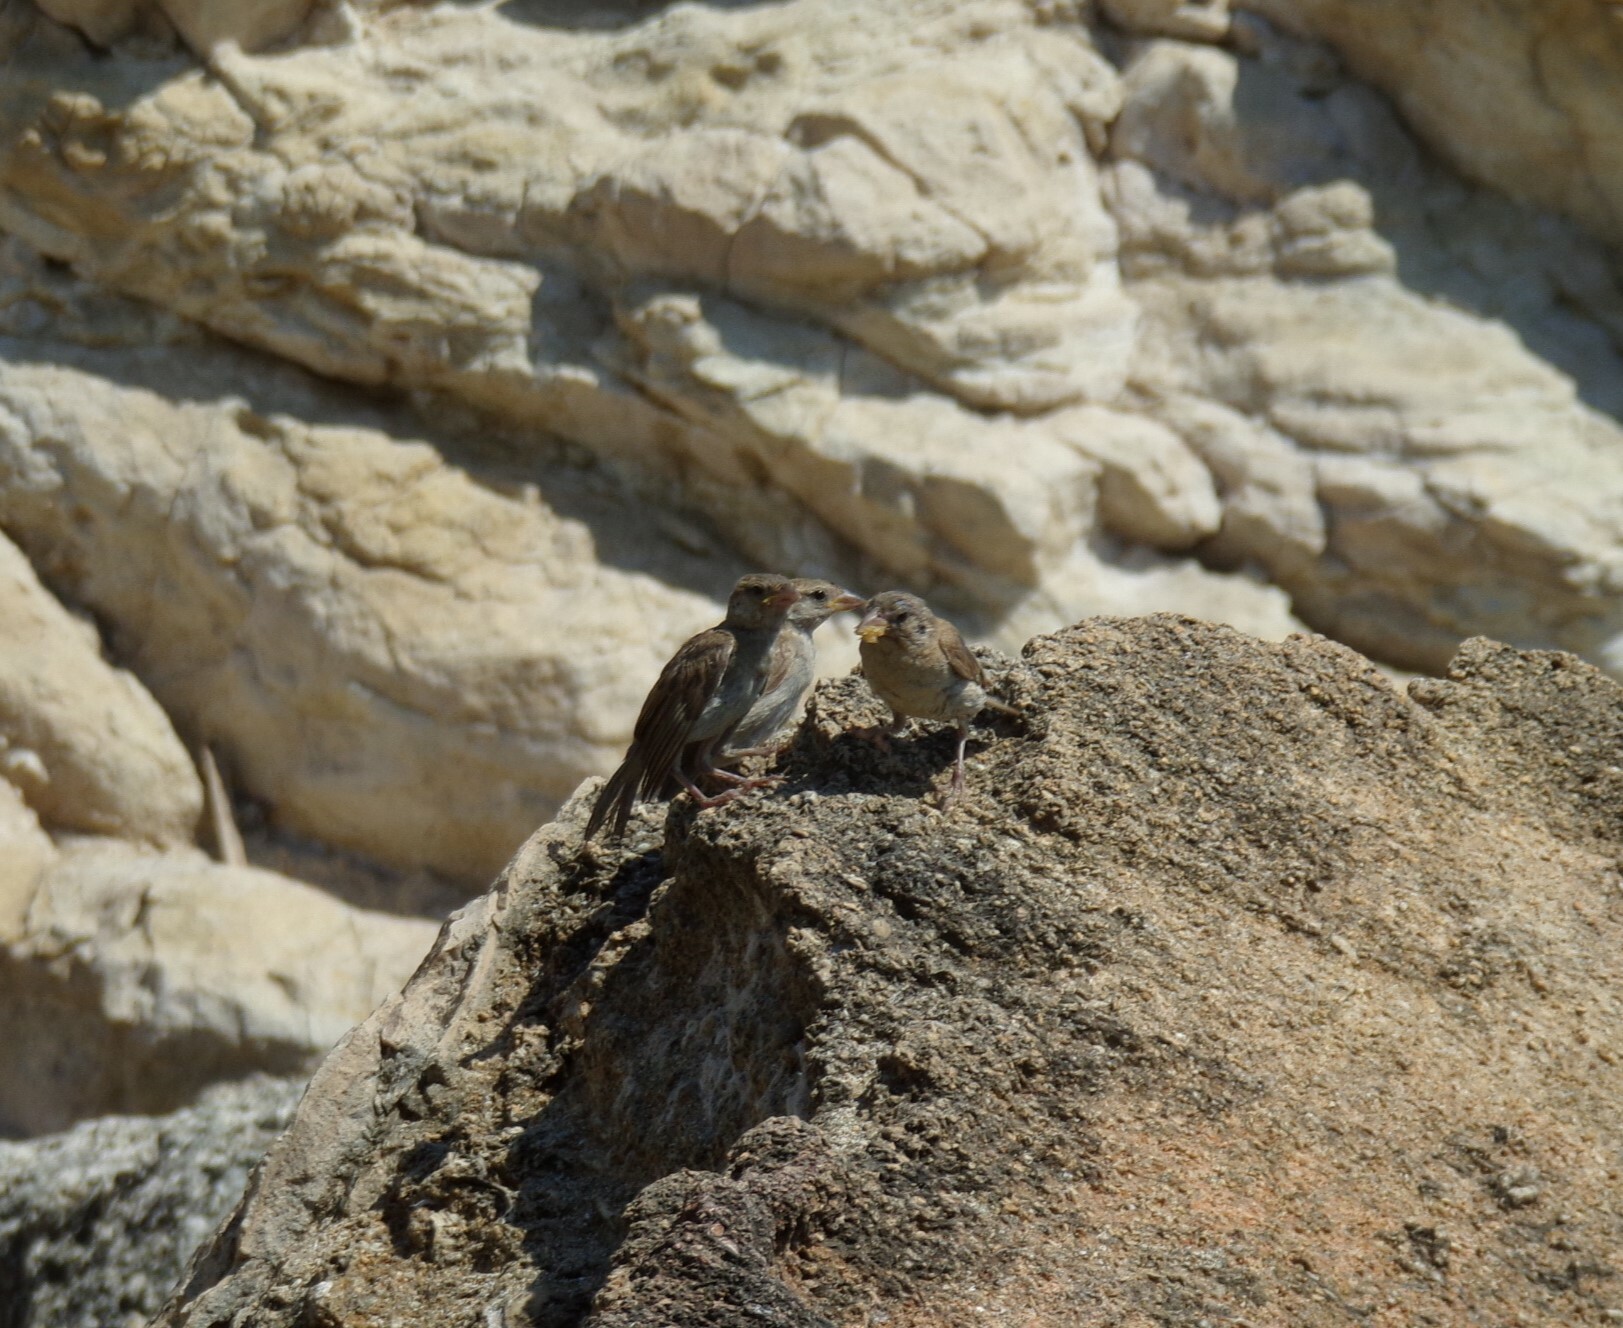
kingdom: Animalia
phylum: Chordata
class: Aves
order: Passeriformes
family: Passeridae
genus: Passer
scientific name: Passer domesticus
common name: House sparrow
